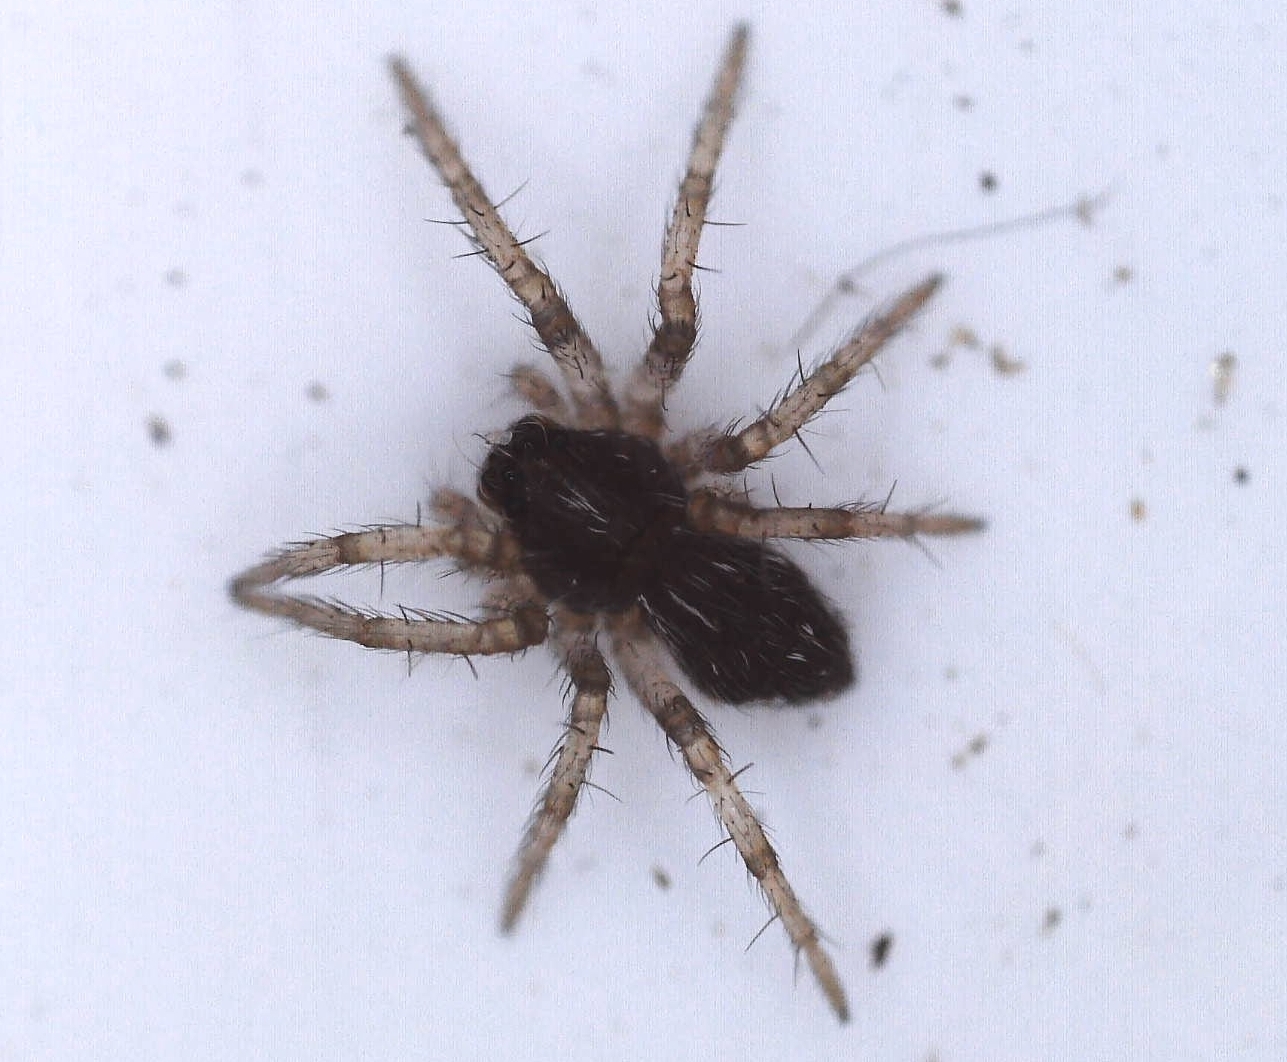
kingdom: Animalia
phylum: Arthropoda
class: Arachnida
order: Araneae
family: Pisauridae
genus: Pisaura
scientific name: Pisaura mirabilis
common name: Tent spider
